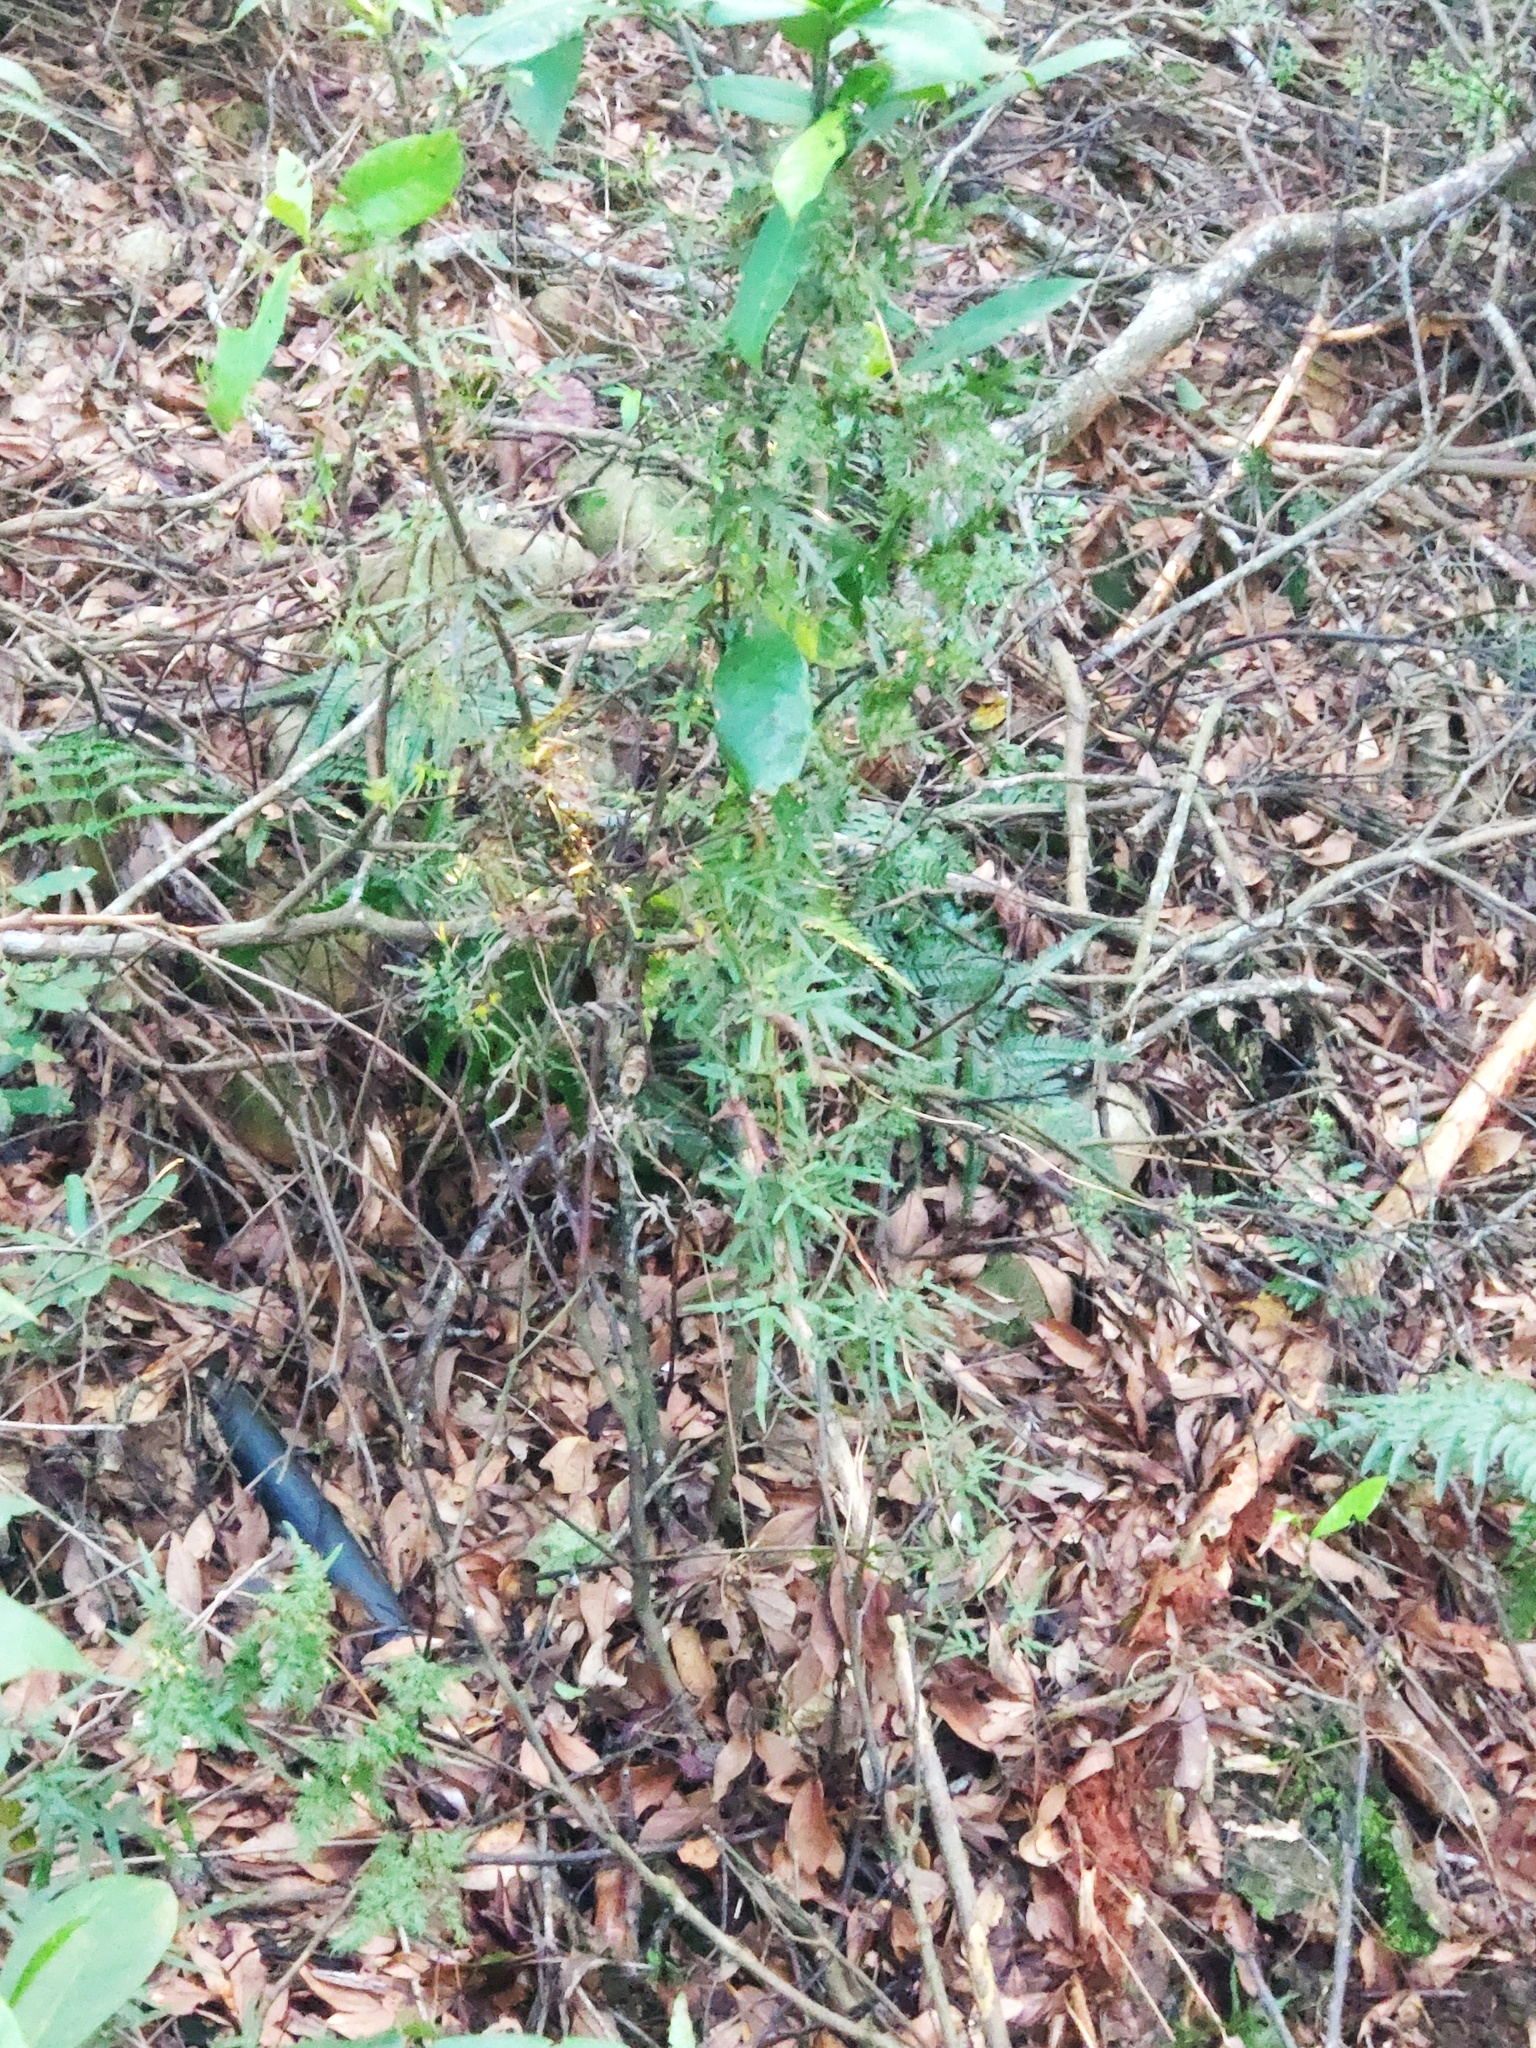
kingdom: Plantae
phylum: Tracheophyta
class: Polypodiopsida
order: Schizaeales
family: Lygodiaceae
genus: Lygodium
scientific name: Lygodium japonicum
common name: Japanese climbing fern
